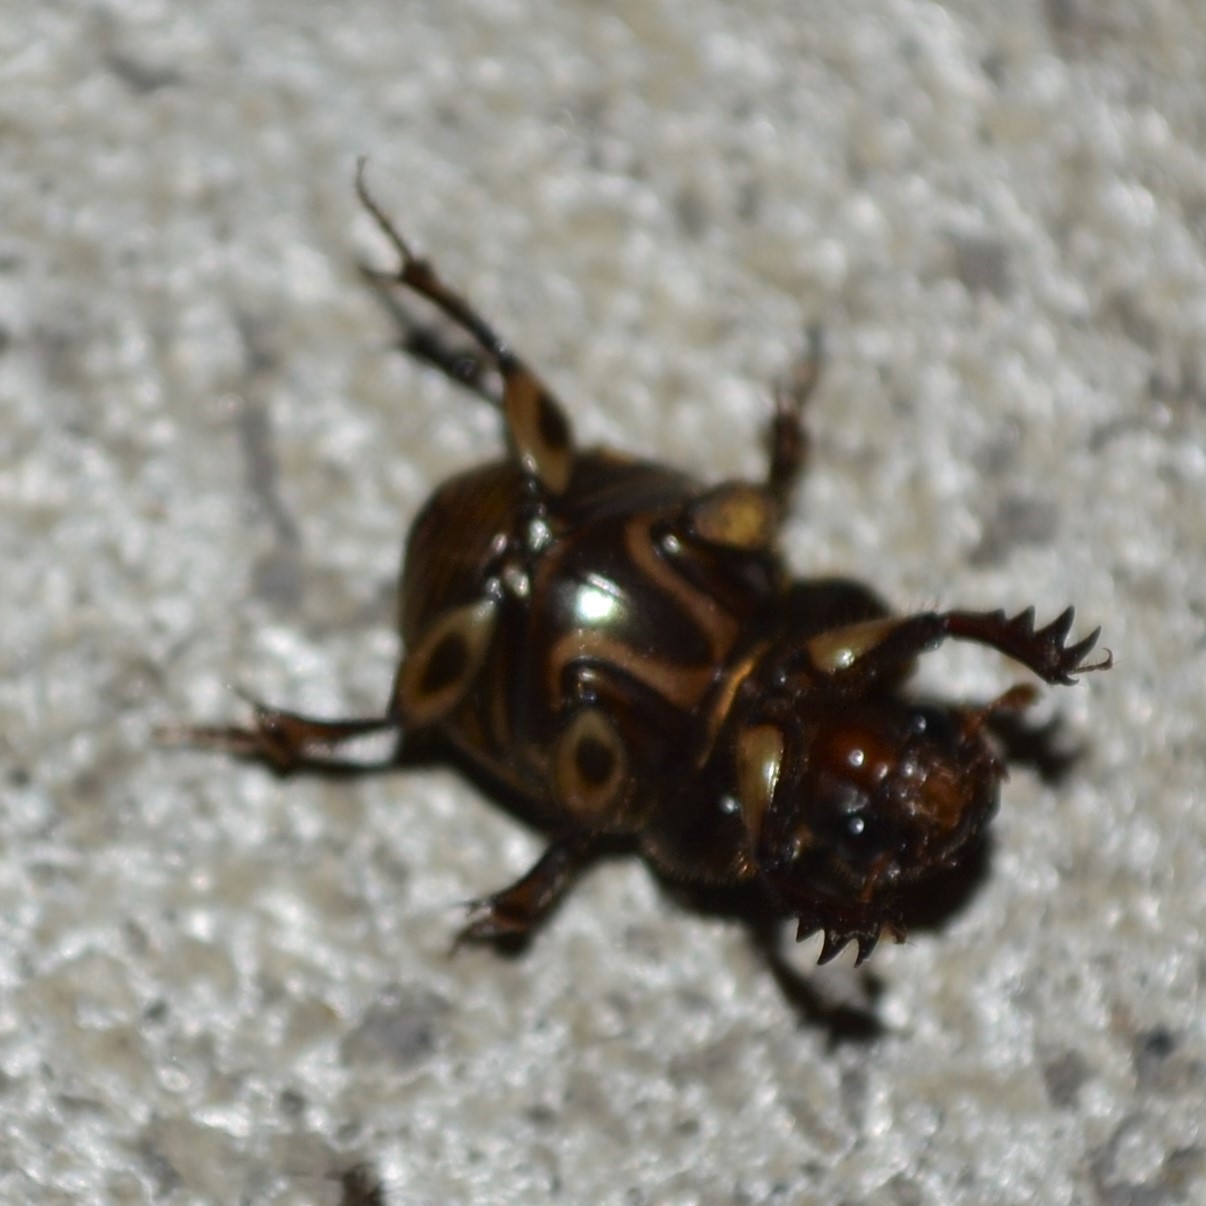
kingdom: Animalia
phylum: Arthropoda
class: Insecta
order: Coleoptera
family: Scarabaeidae
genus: Digitonthophagus
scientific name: Digitonthophagus gazella
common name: Brown dung beetle
